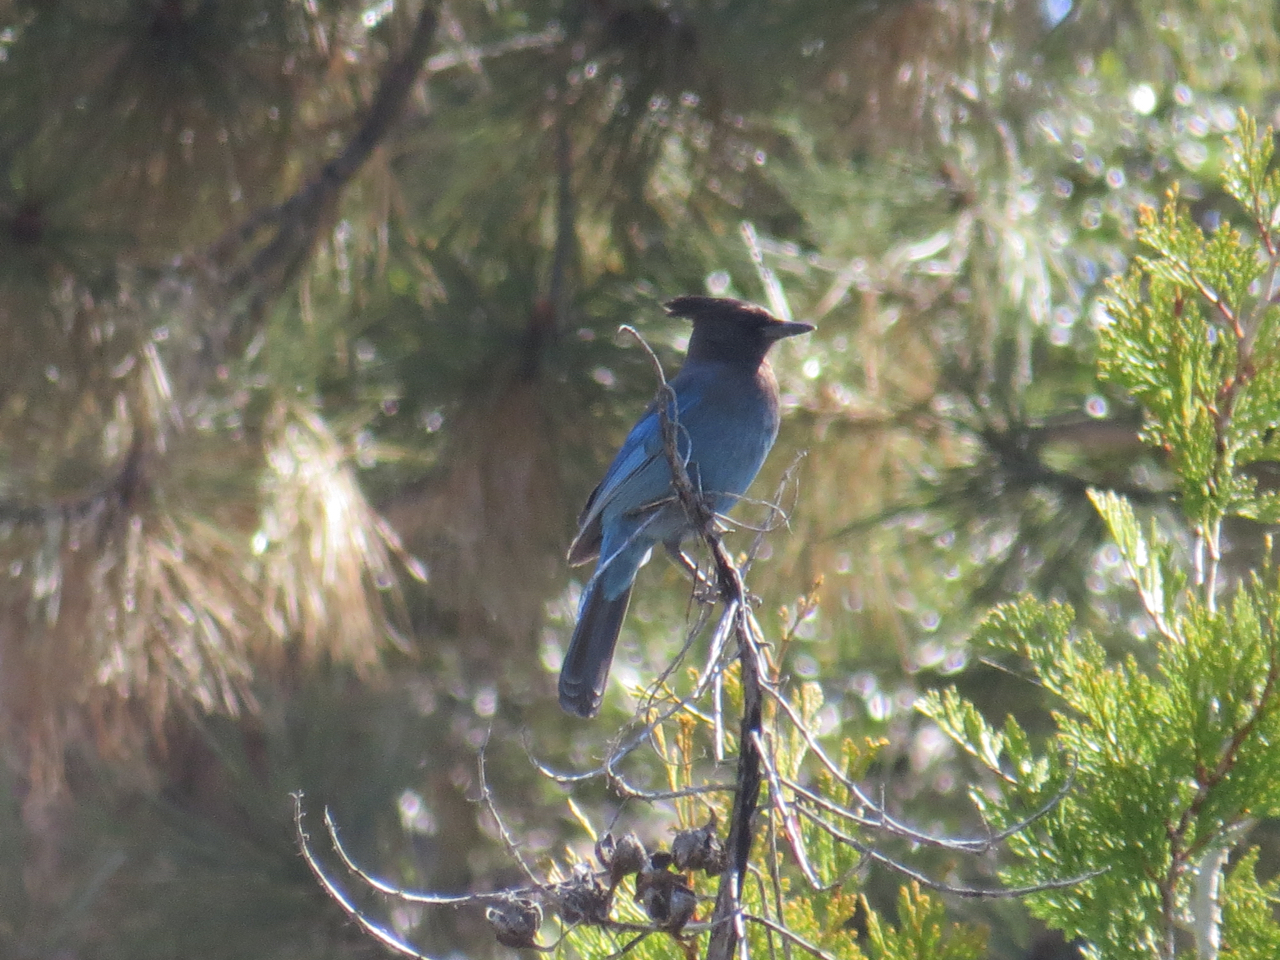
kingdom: Animalia
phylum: Chordata
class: Aves
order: Passeriformes
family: Corvidae
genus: Cyanocitta
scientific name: Cyanocitta stelleri
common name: Steller's jay
